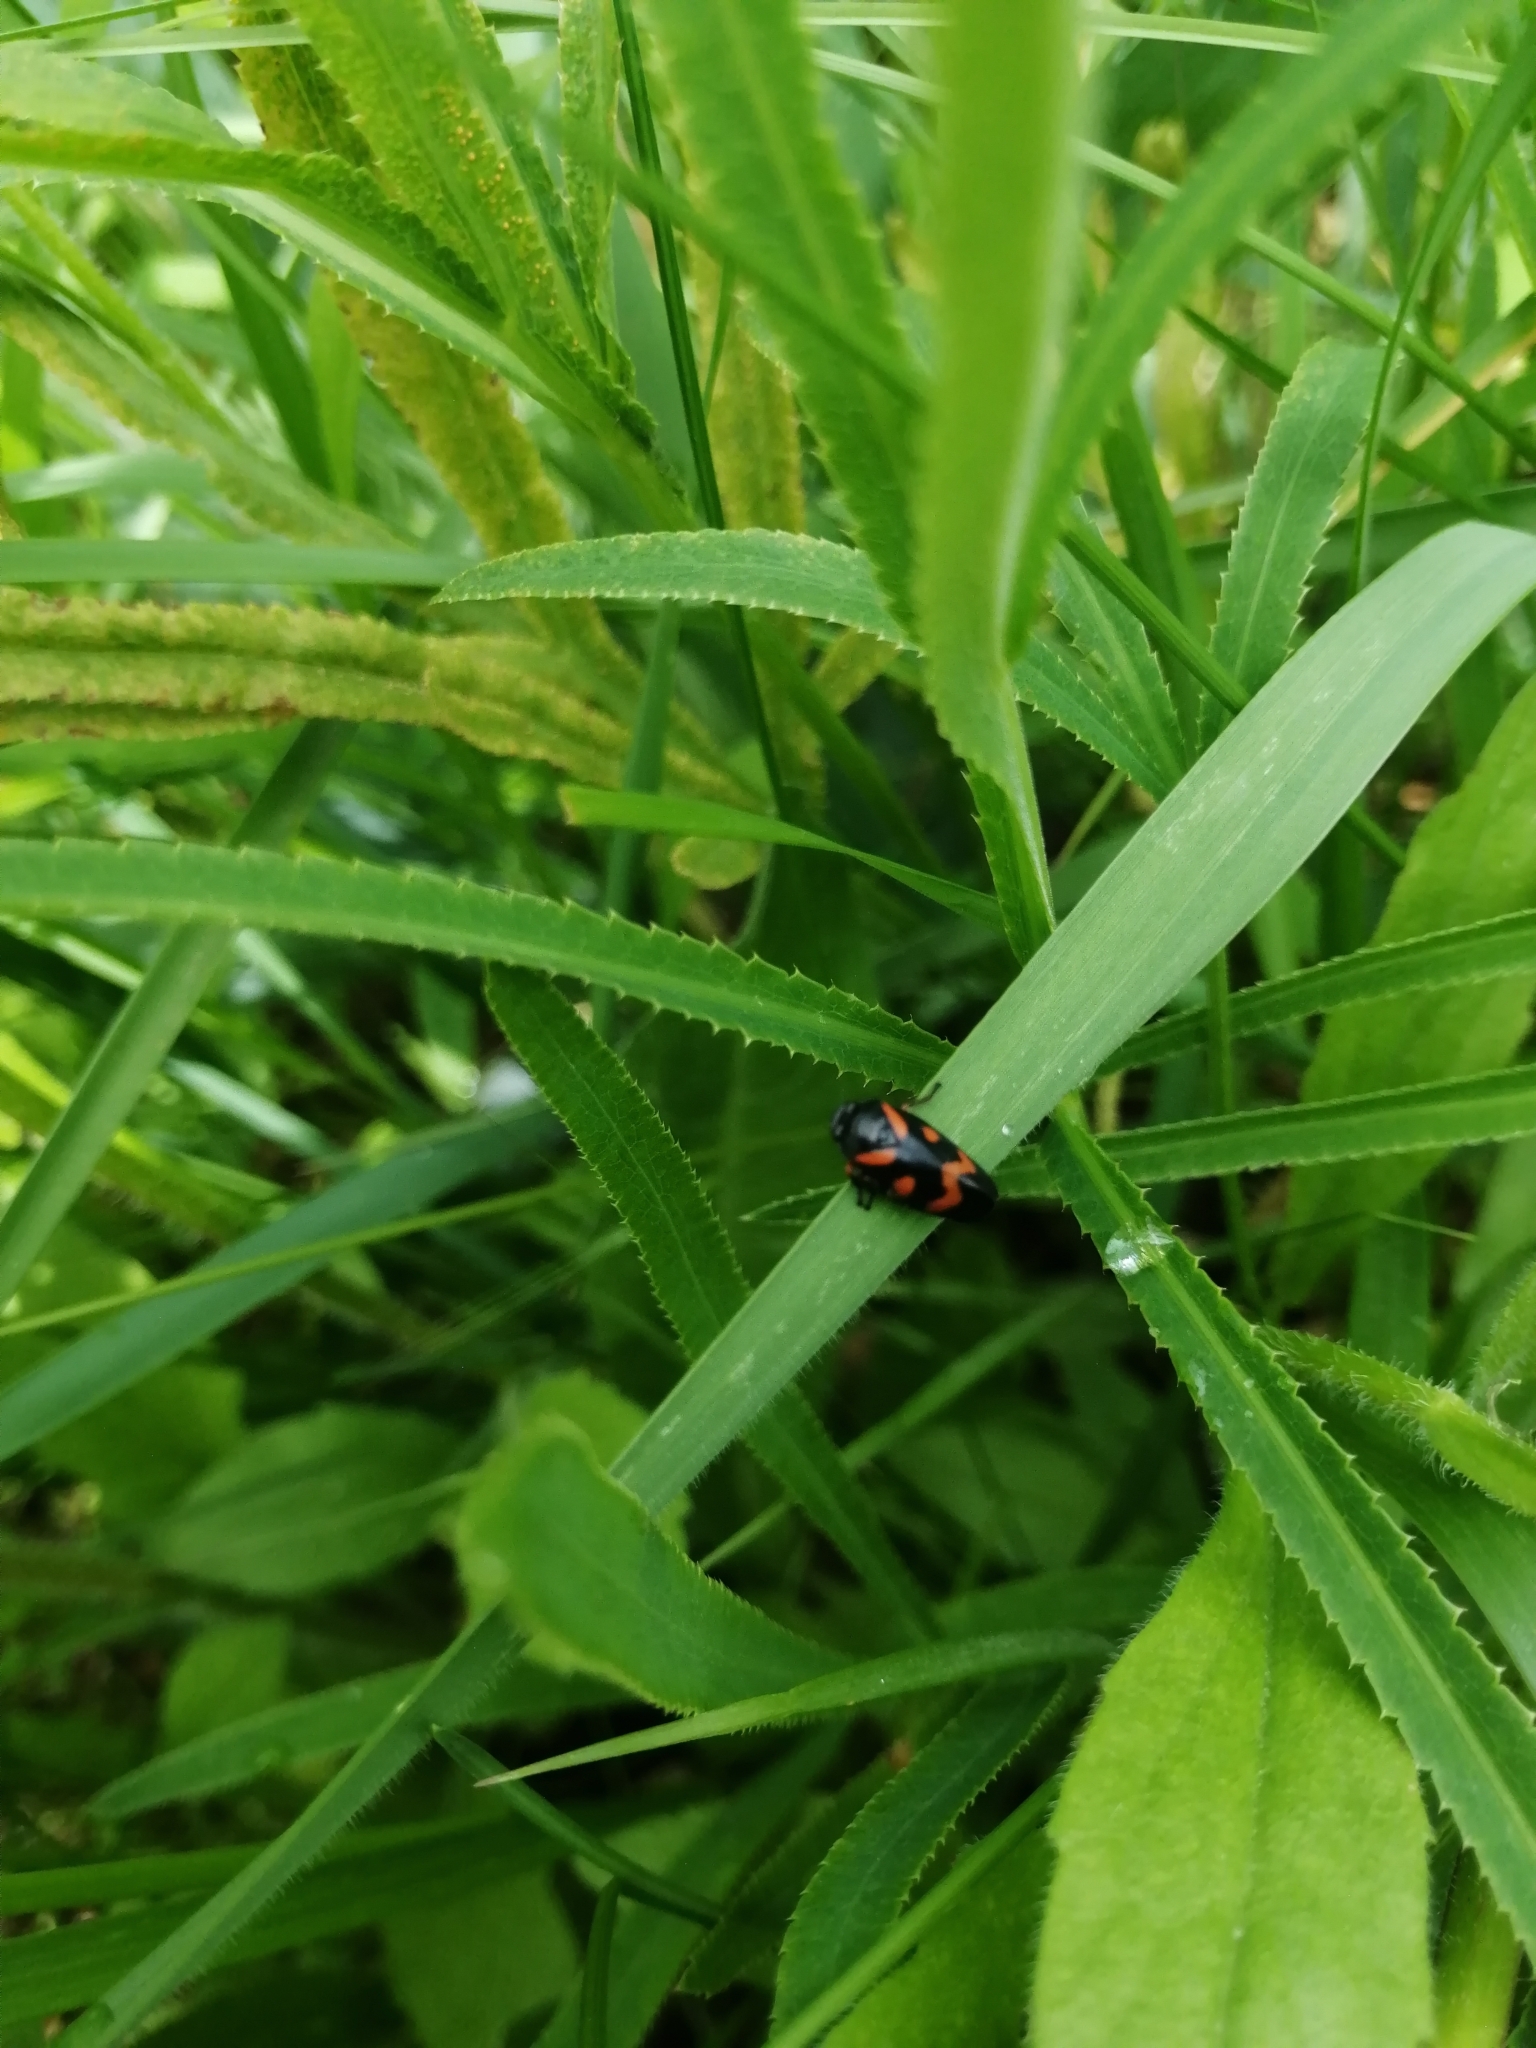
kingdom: Animalia
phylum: Arthropoda
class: Insecta
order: Hemiptera
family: Cercopidae
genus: Cercopis
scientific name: Cercopis intermedia
